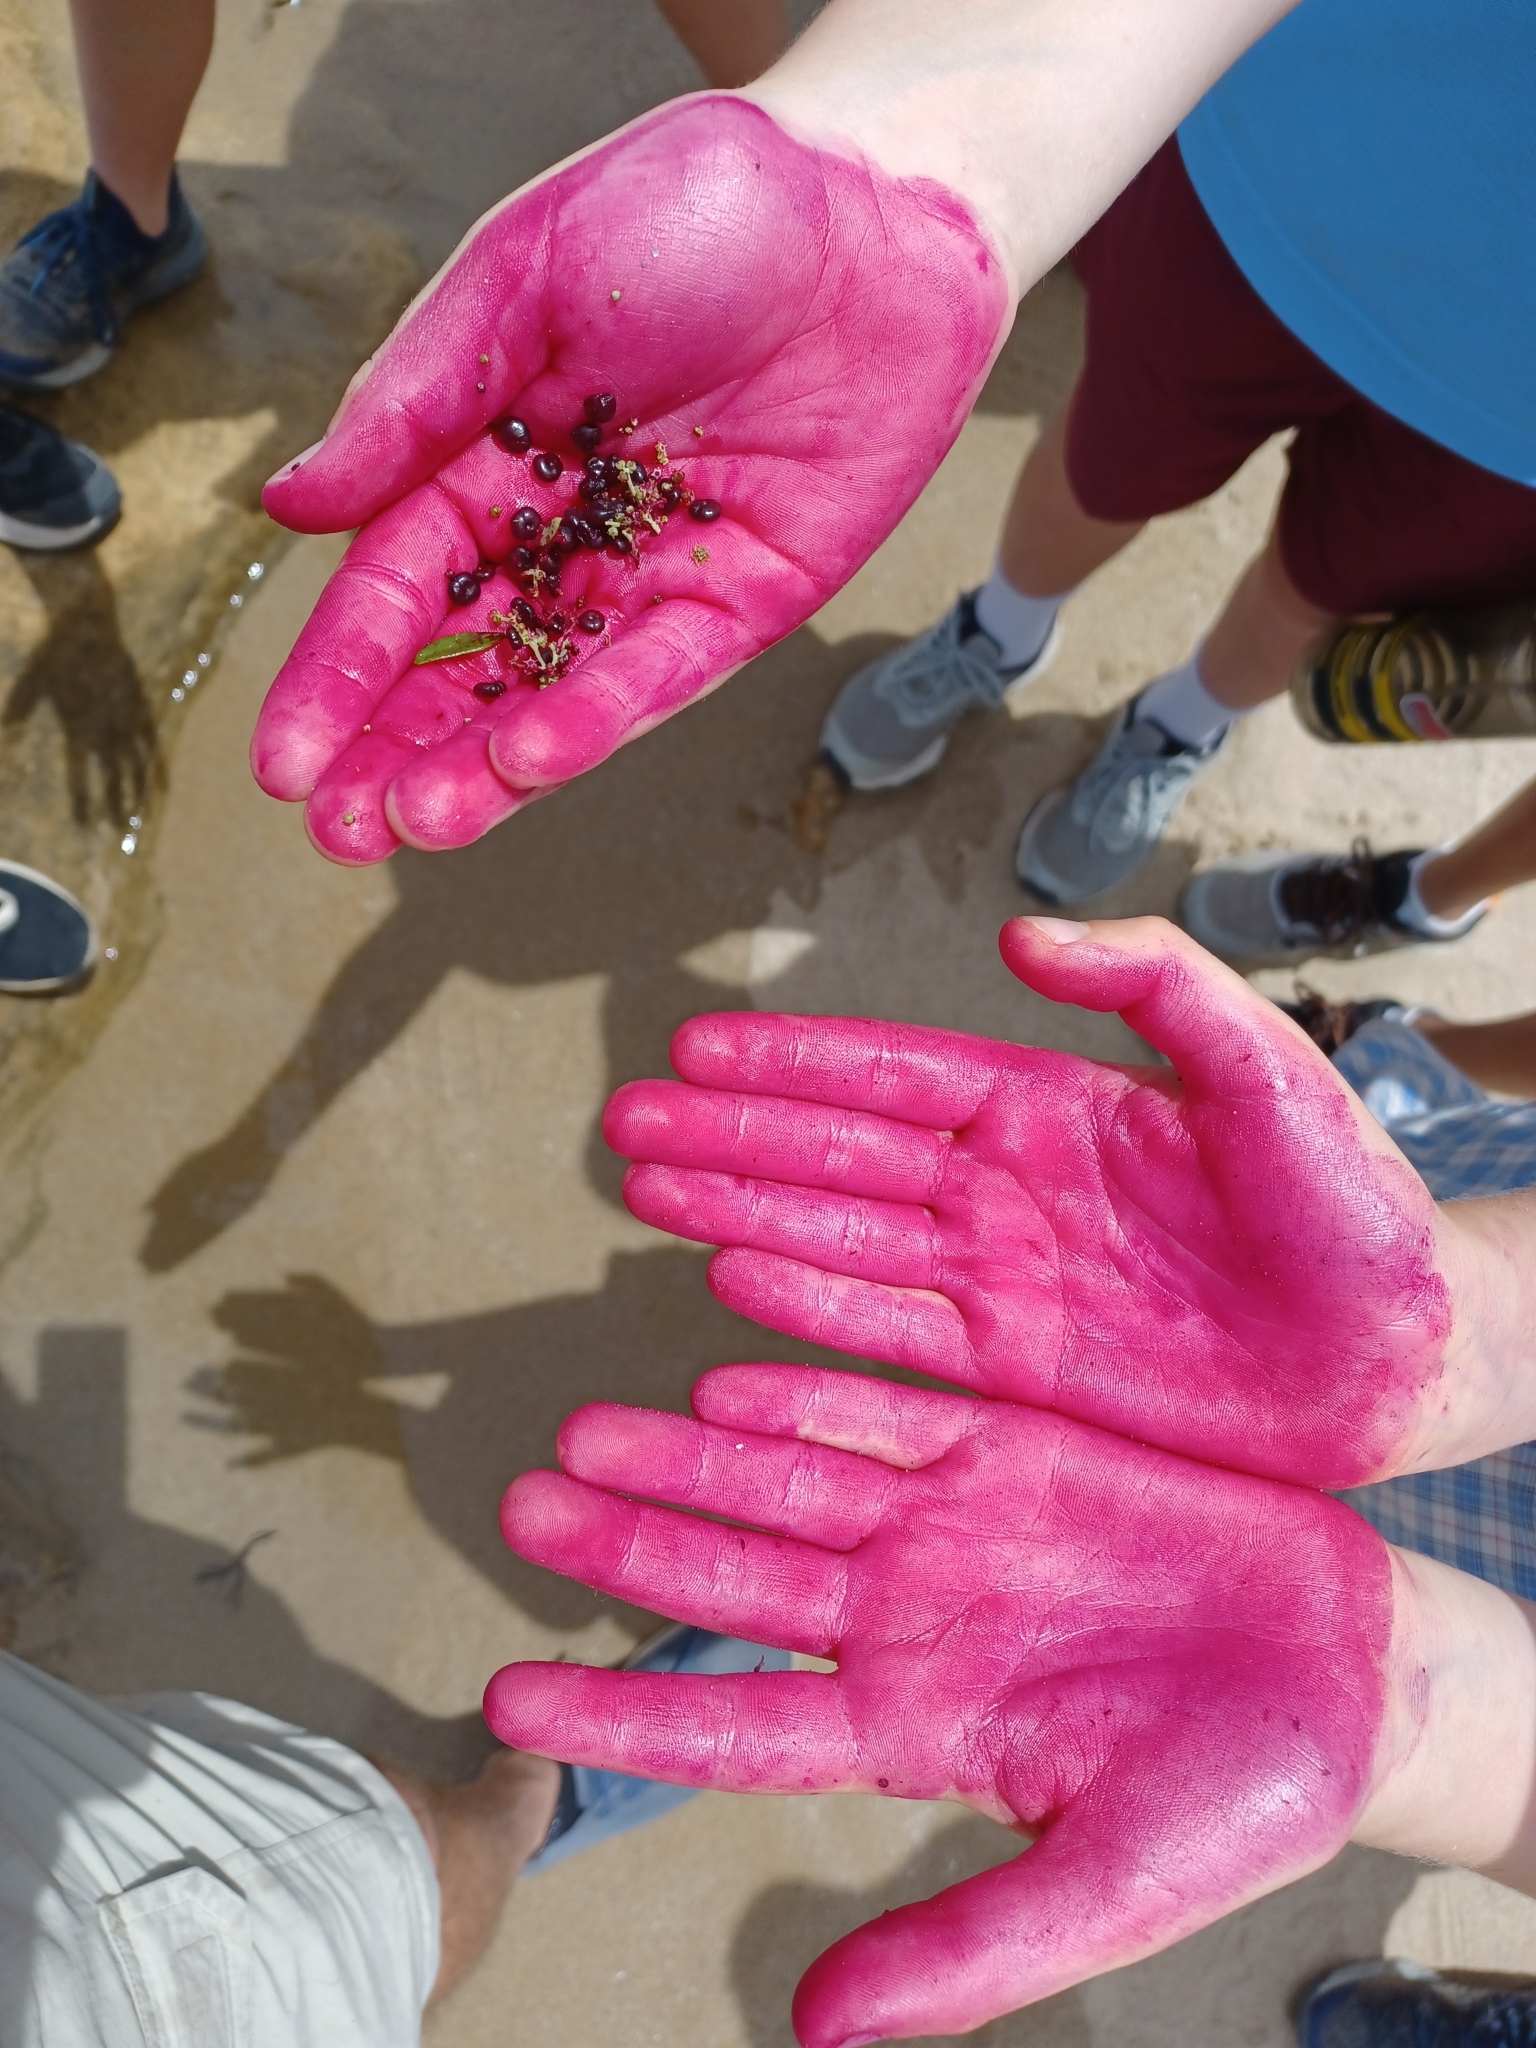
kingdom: Plantae
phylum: Tracheophyta
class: Magnoliopsida
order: Caryophyllales
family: Amaranthaceae
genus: Chenopodium
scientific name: Chenopodium candolleanum
